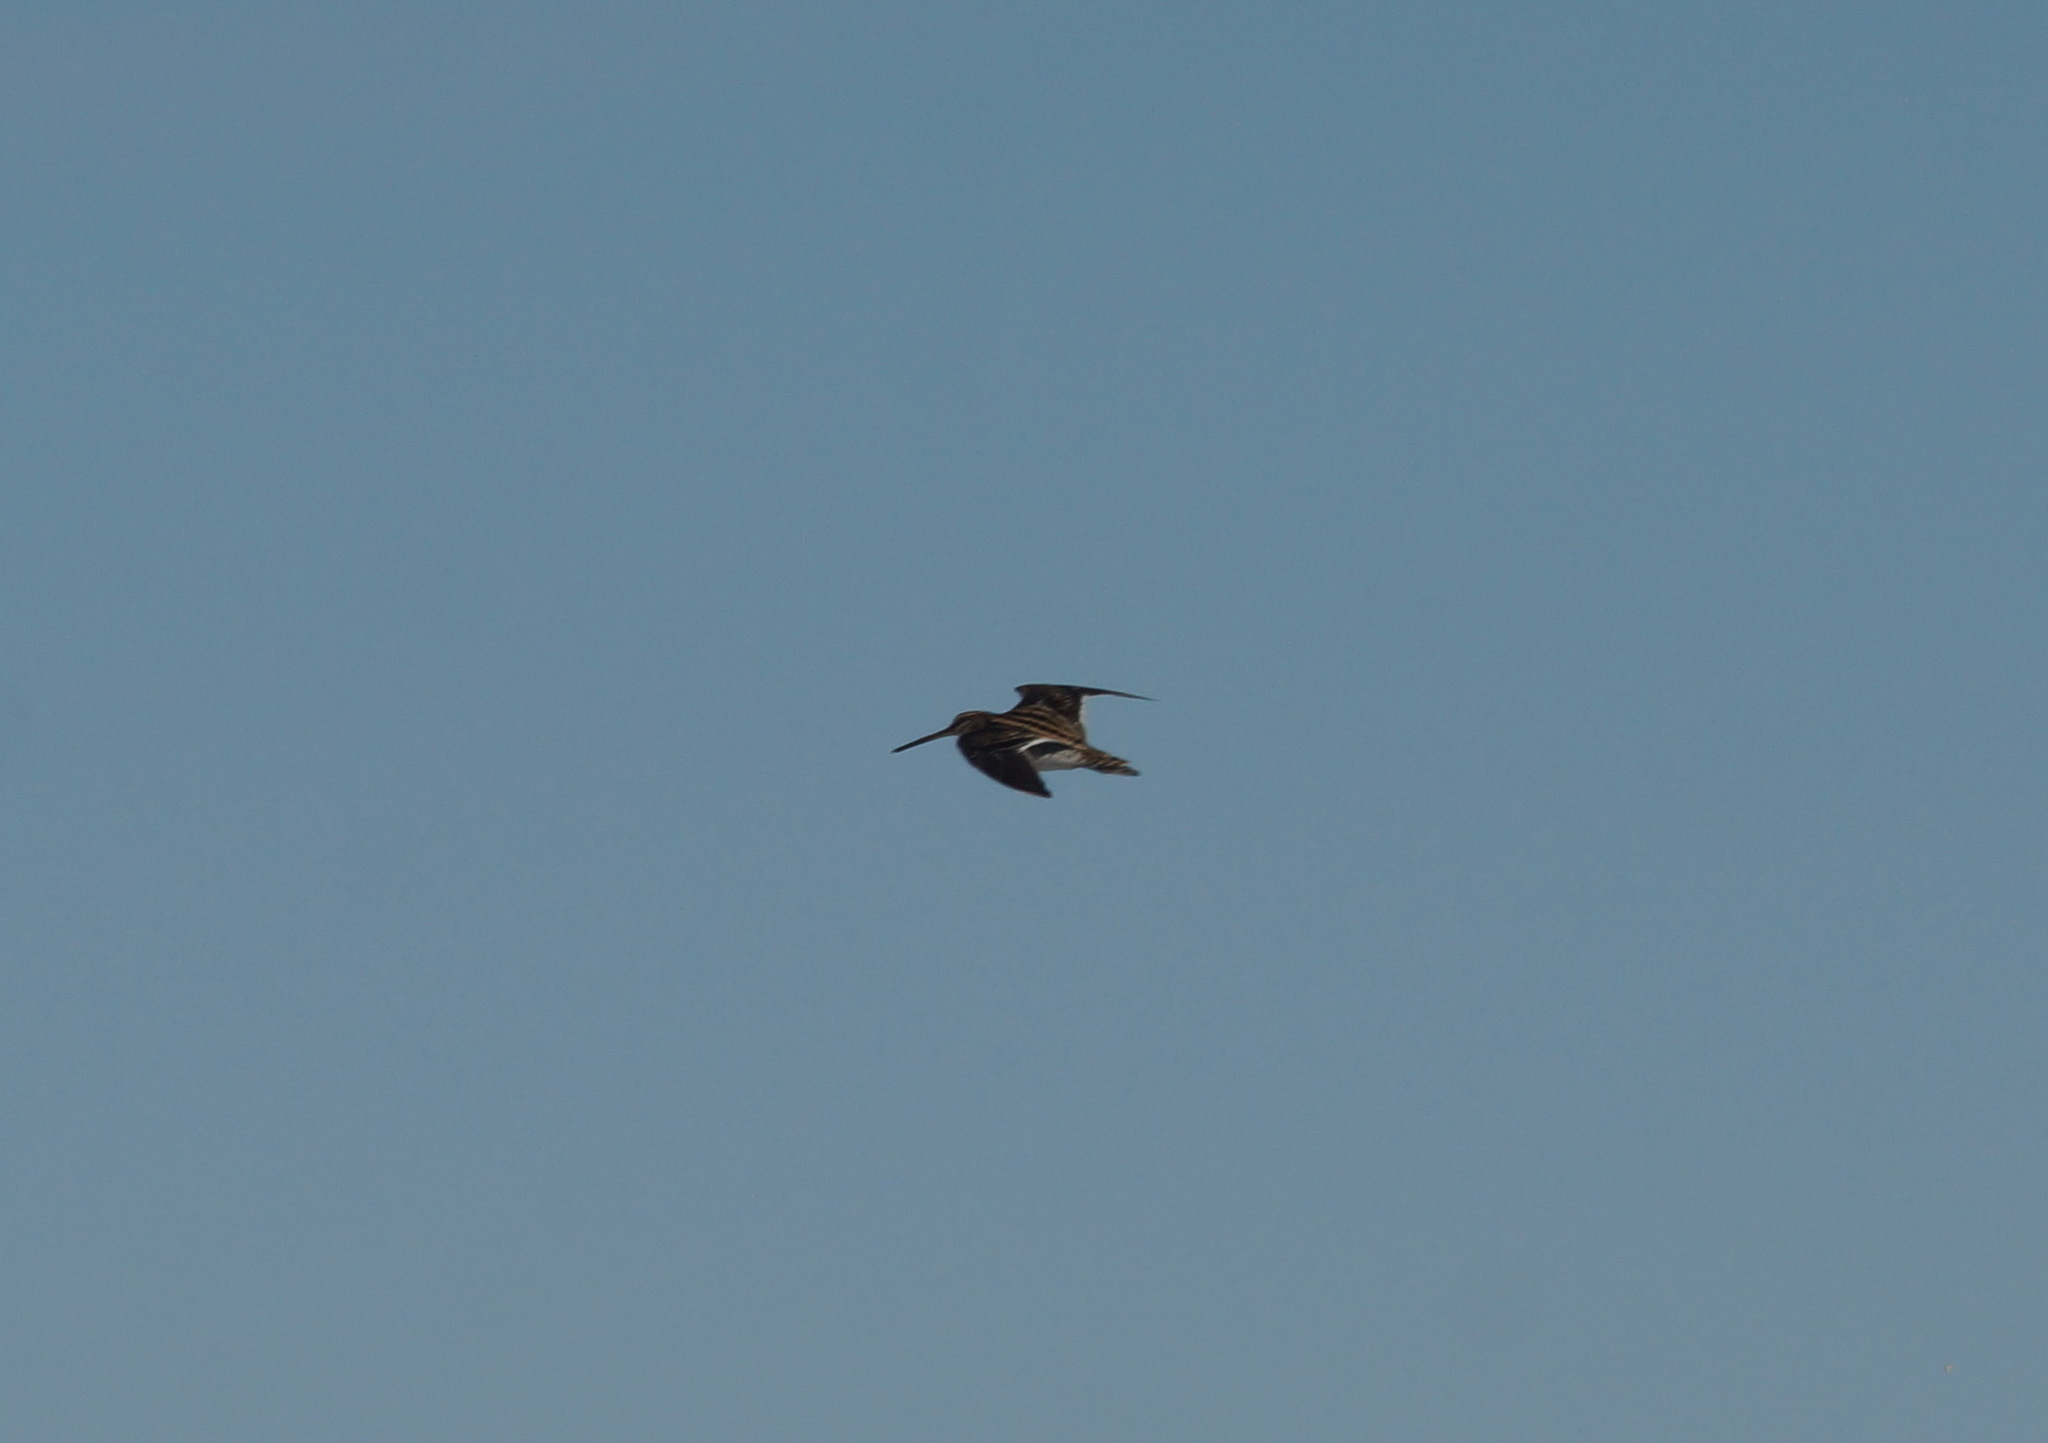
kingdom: Animalia
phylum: Chordata
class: Aves
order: Charadriiformes
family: Scolopacidae
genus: Gallinago
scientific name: Gallinago gallinago
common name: Common snipe
